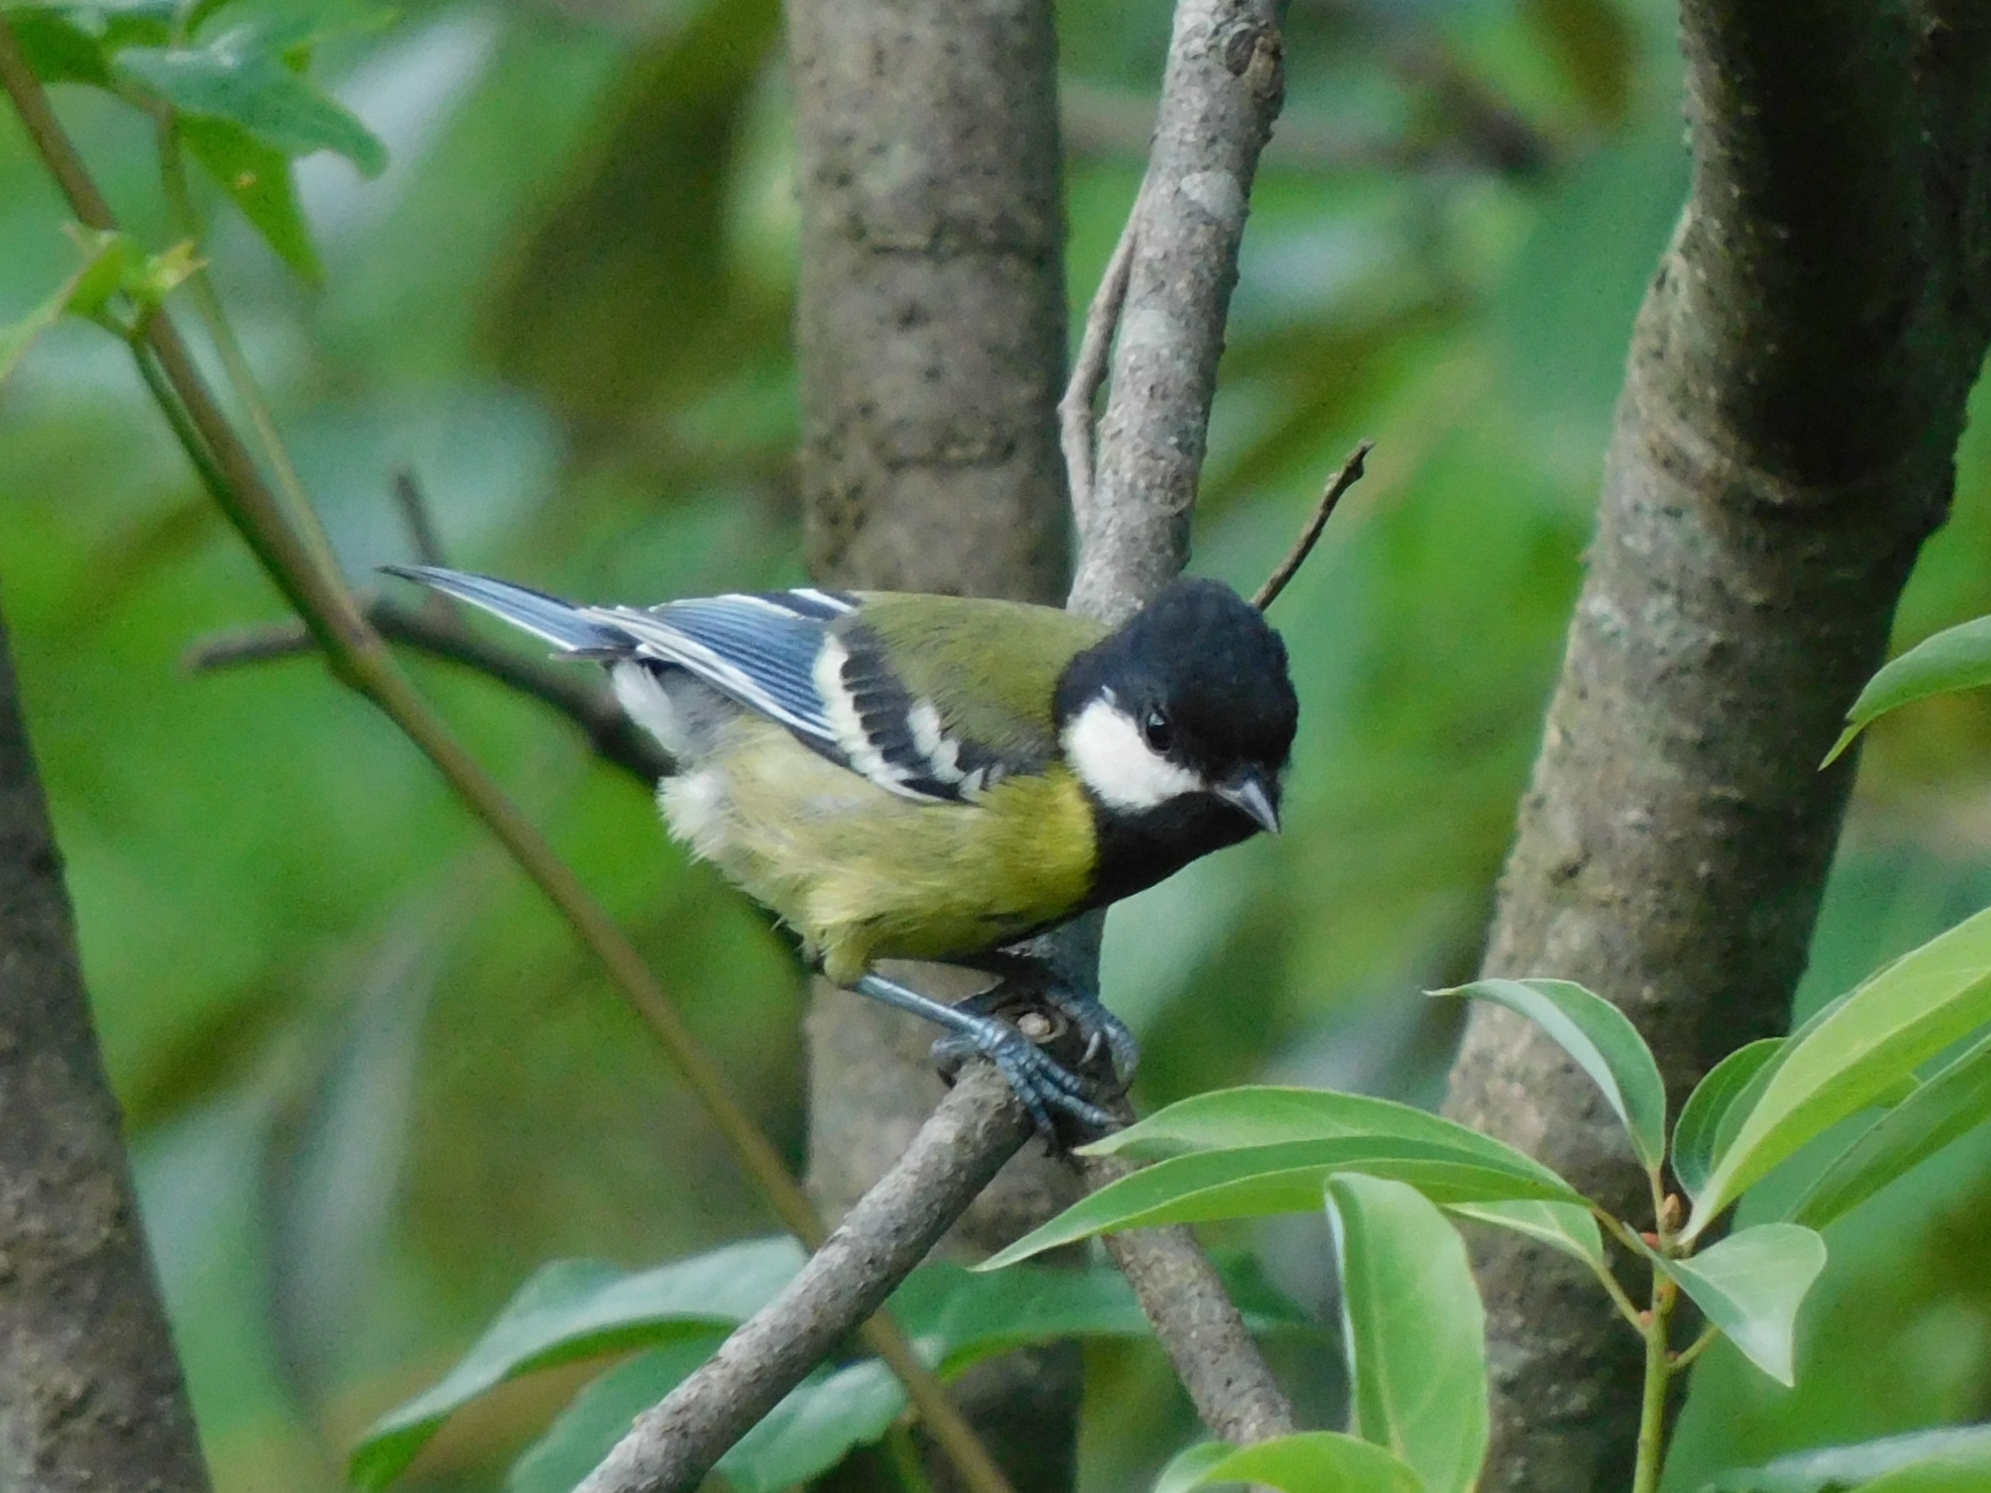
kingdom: Animalia
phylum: Chordata
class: Aves
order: Passeriformes
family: Paridae
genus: Parus
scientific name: Parus monticolus
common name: Green-backed tit
